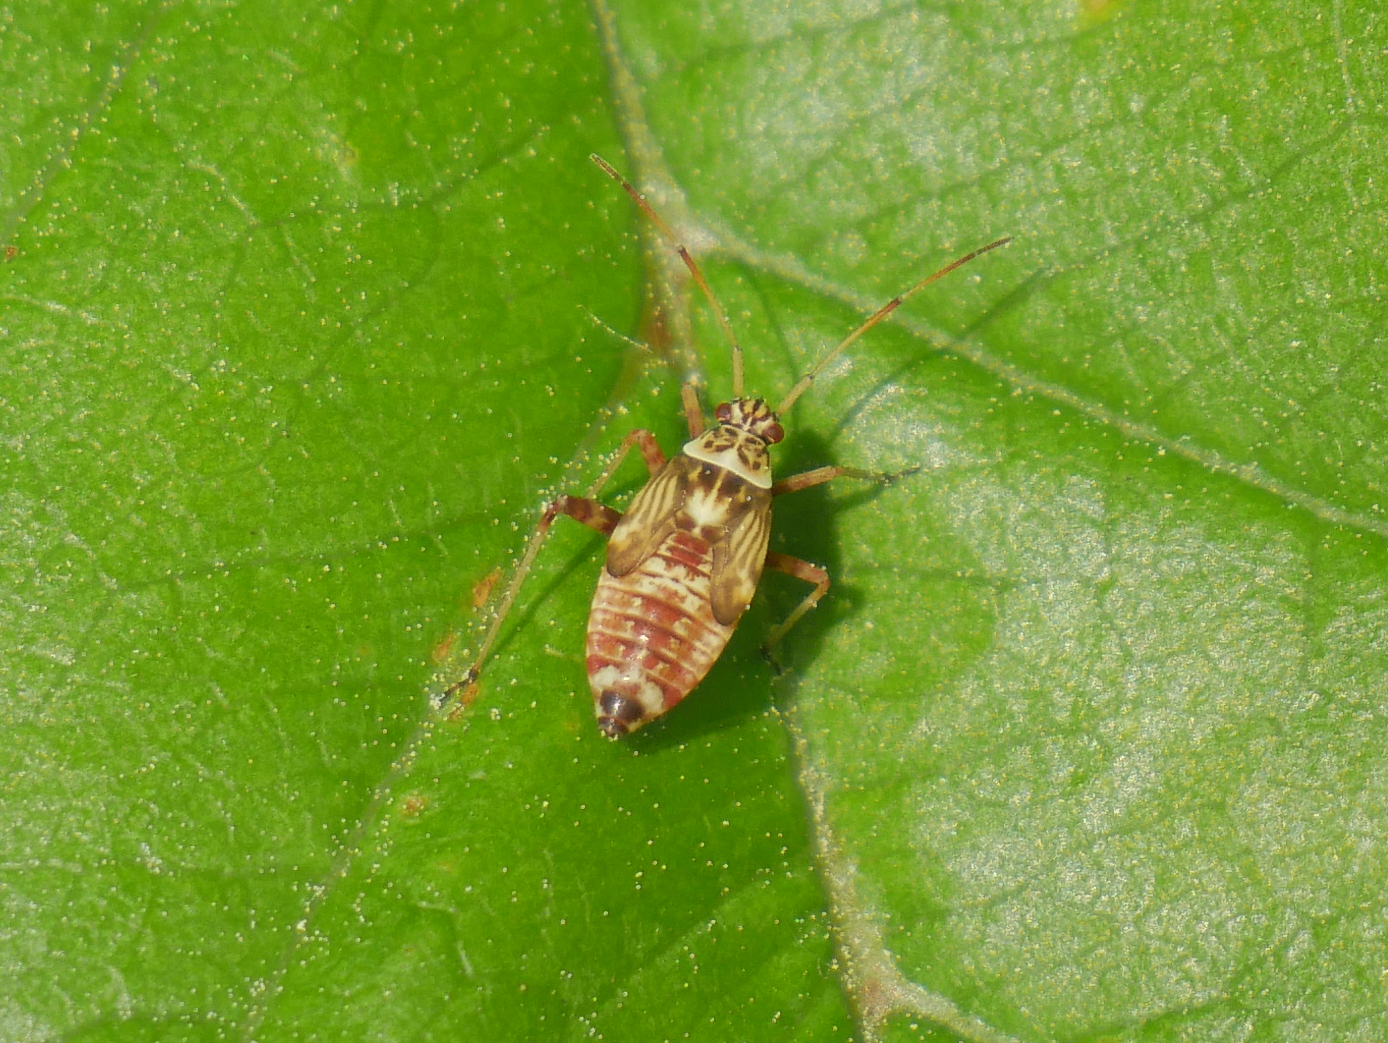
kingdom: Animalia
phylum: Arthropoda
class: Insecta
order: Hemiptera
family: Miridae
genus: Rhabdomiris
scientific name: Rhabdomiris striatellus
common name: Plant bug
